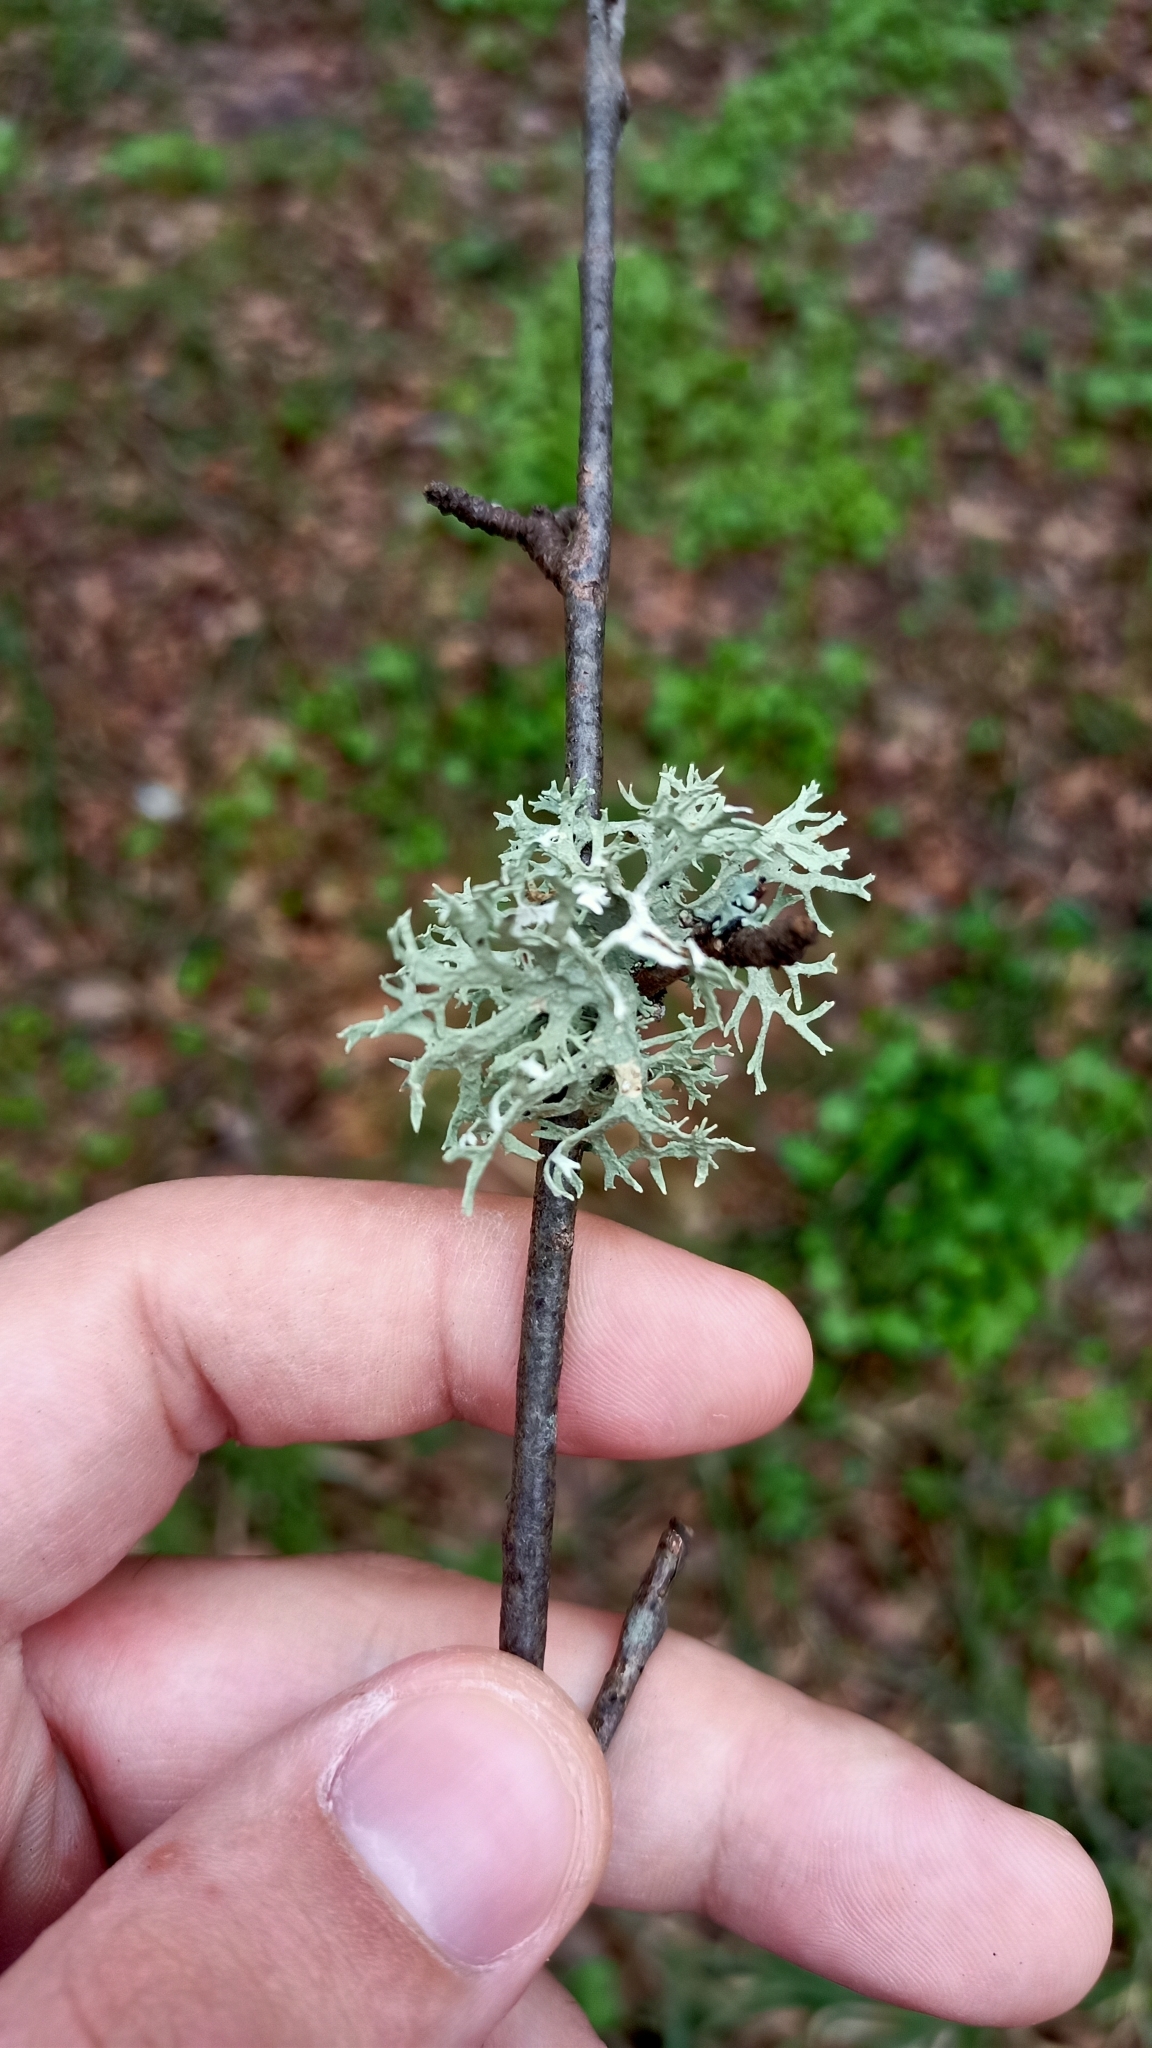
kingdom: Fungi
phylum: Ascomycota
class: Lecanoromycetes
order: Lecanorales
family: Parmeliaceae
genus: Evernia
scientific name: Evernia prunastri
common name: Oak moss
